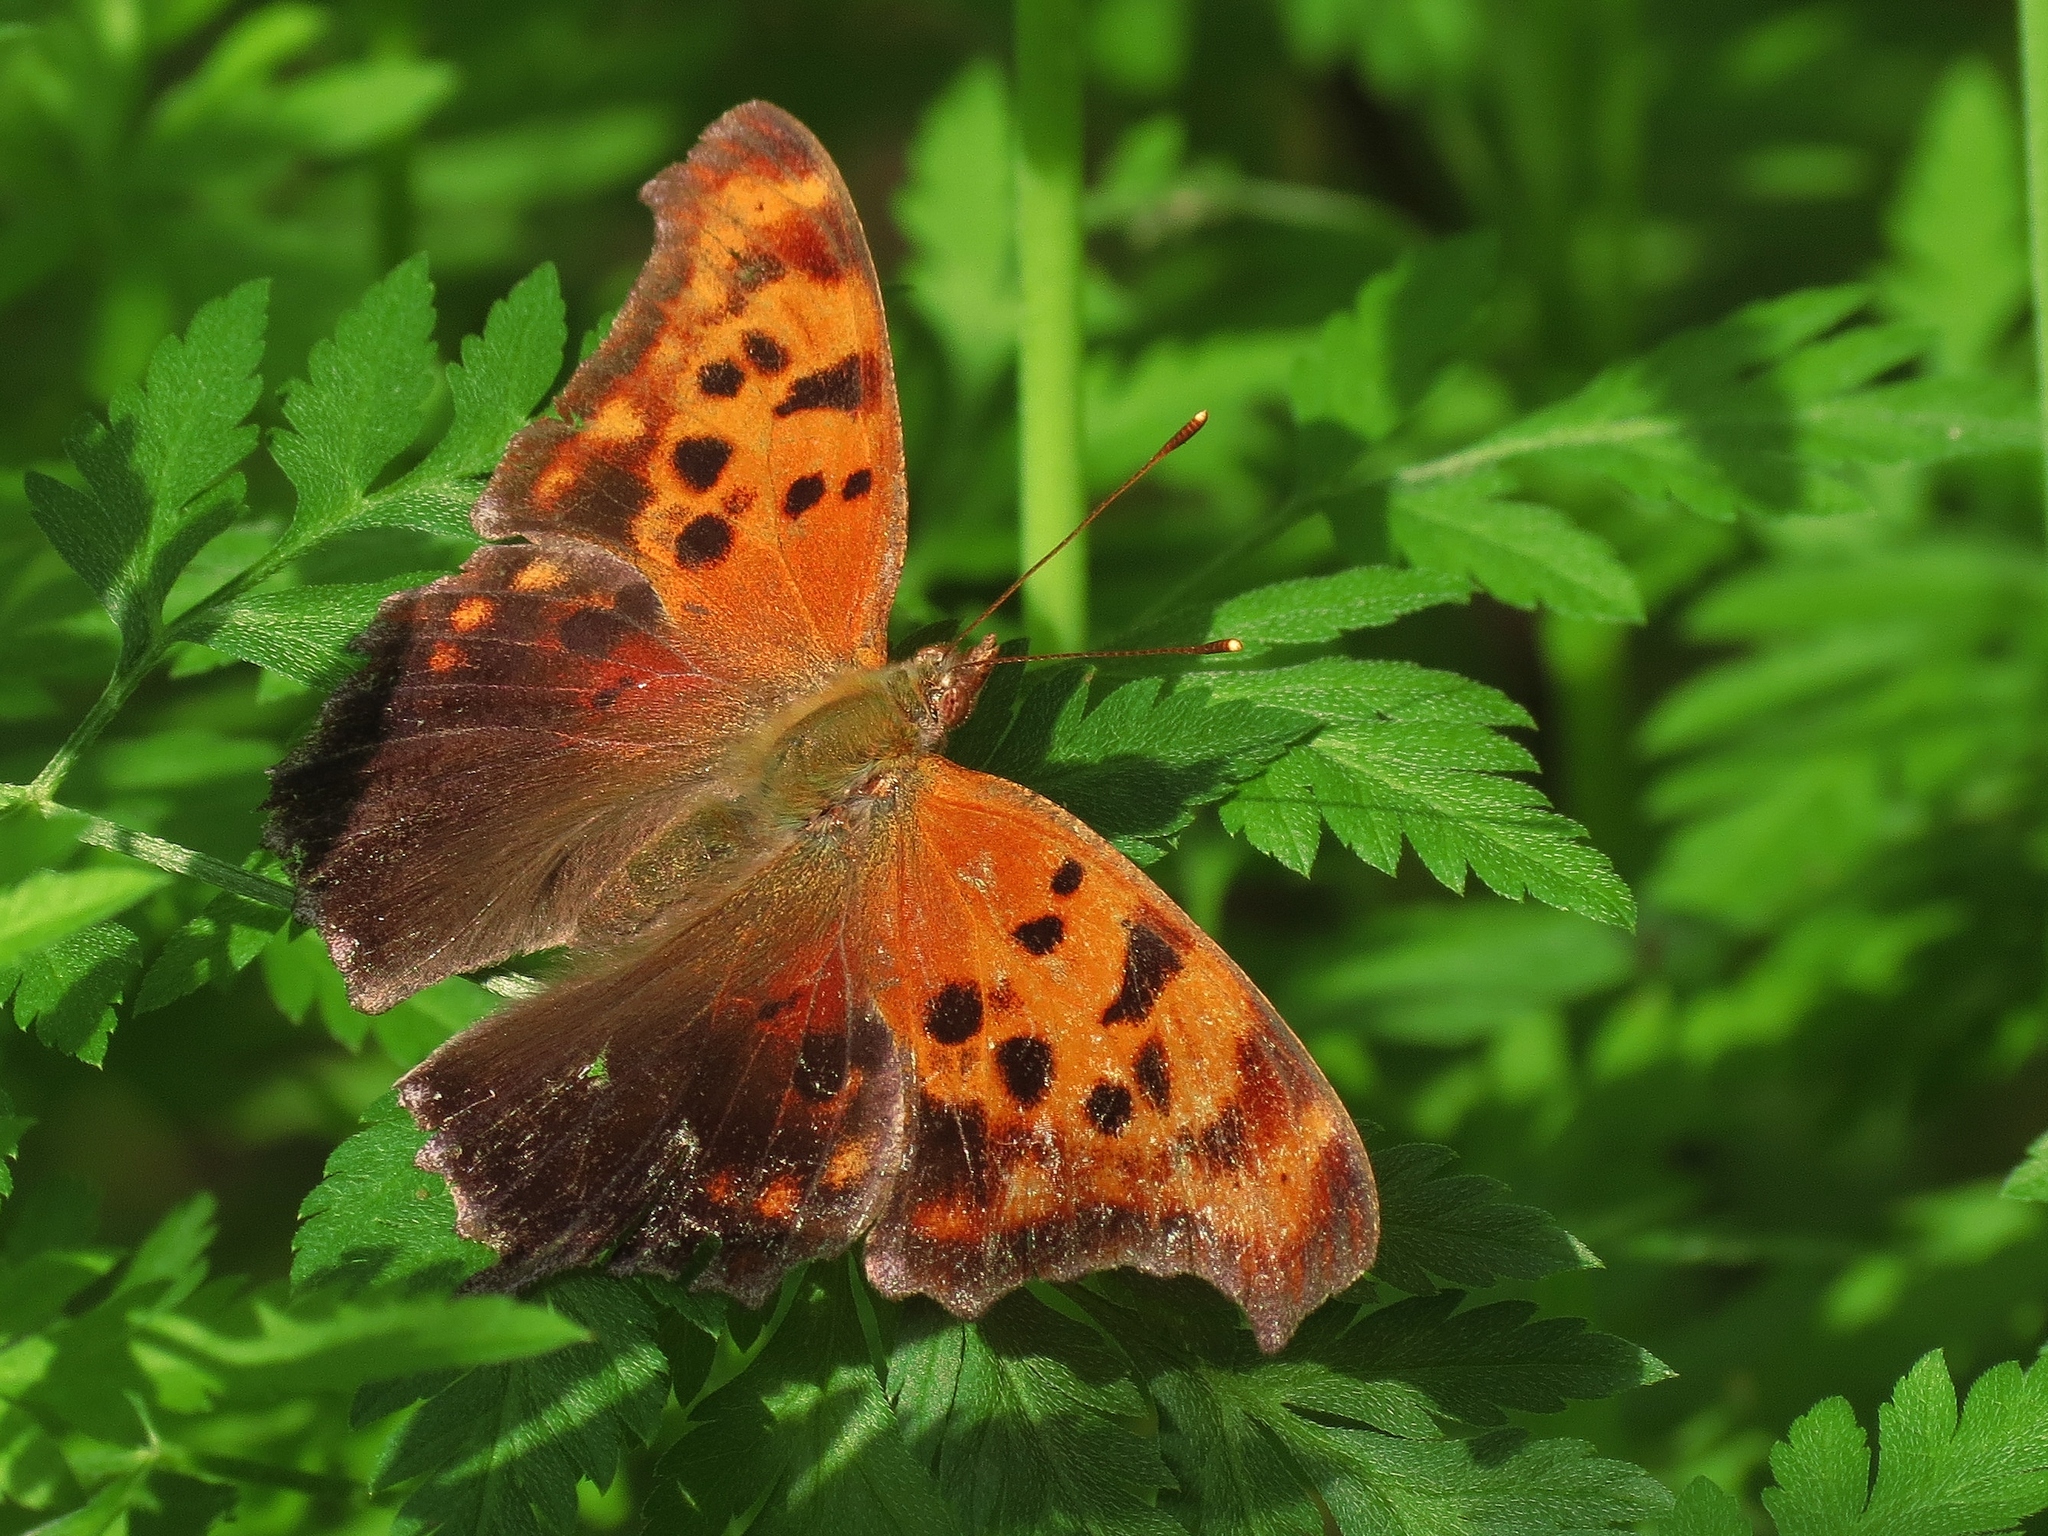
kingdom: Animalia
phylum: Arthropoda
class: Insecta
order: Lepidoptera
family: Nymphalidae
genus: Polygonia
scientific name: Polygonia interrogationis
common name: Question mark
